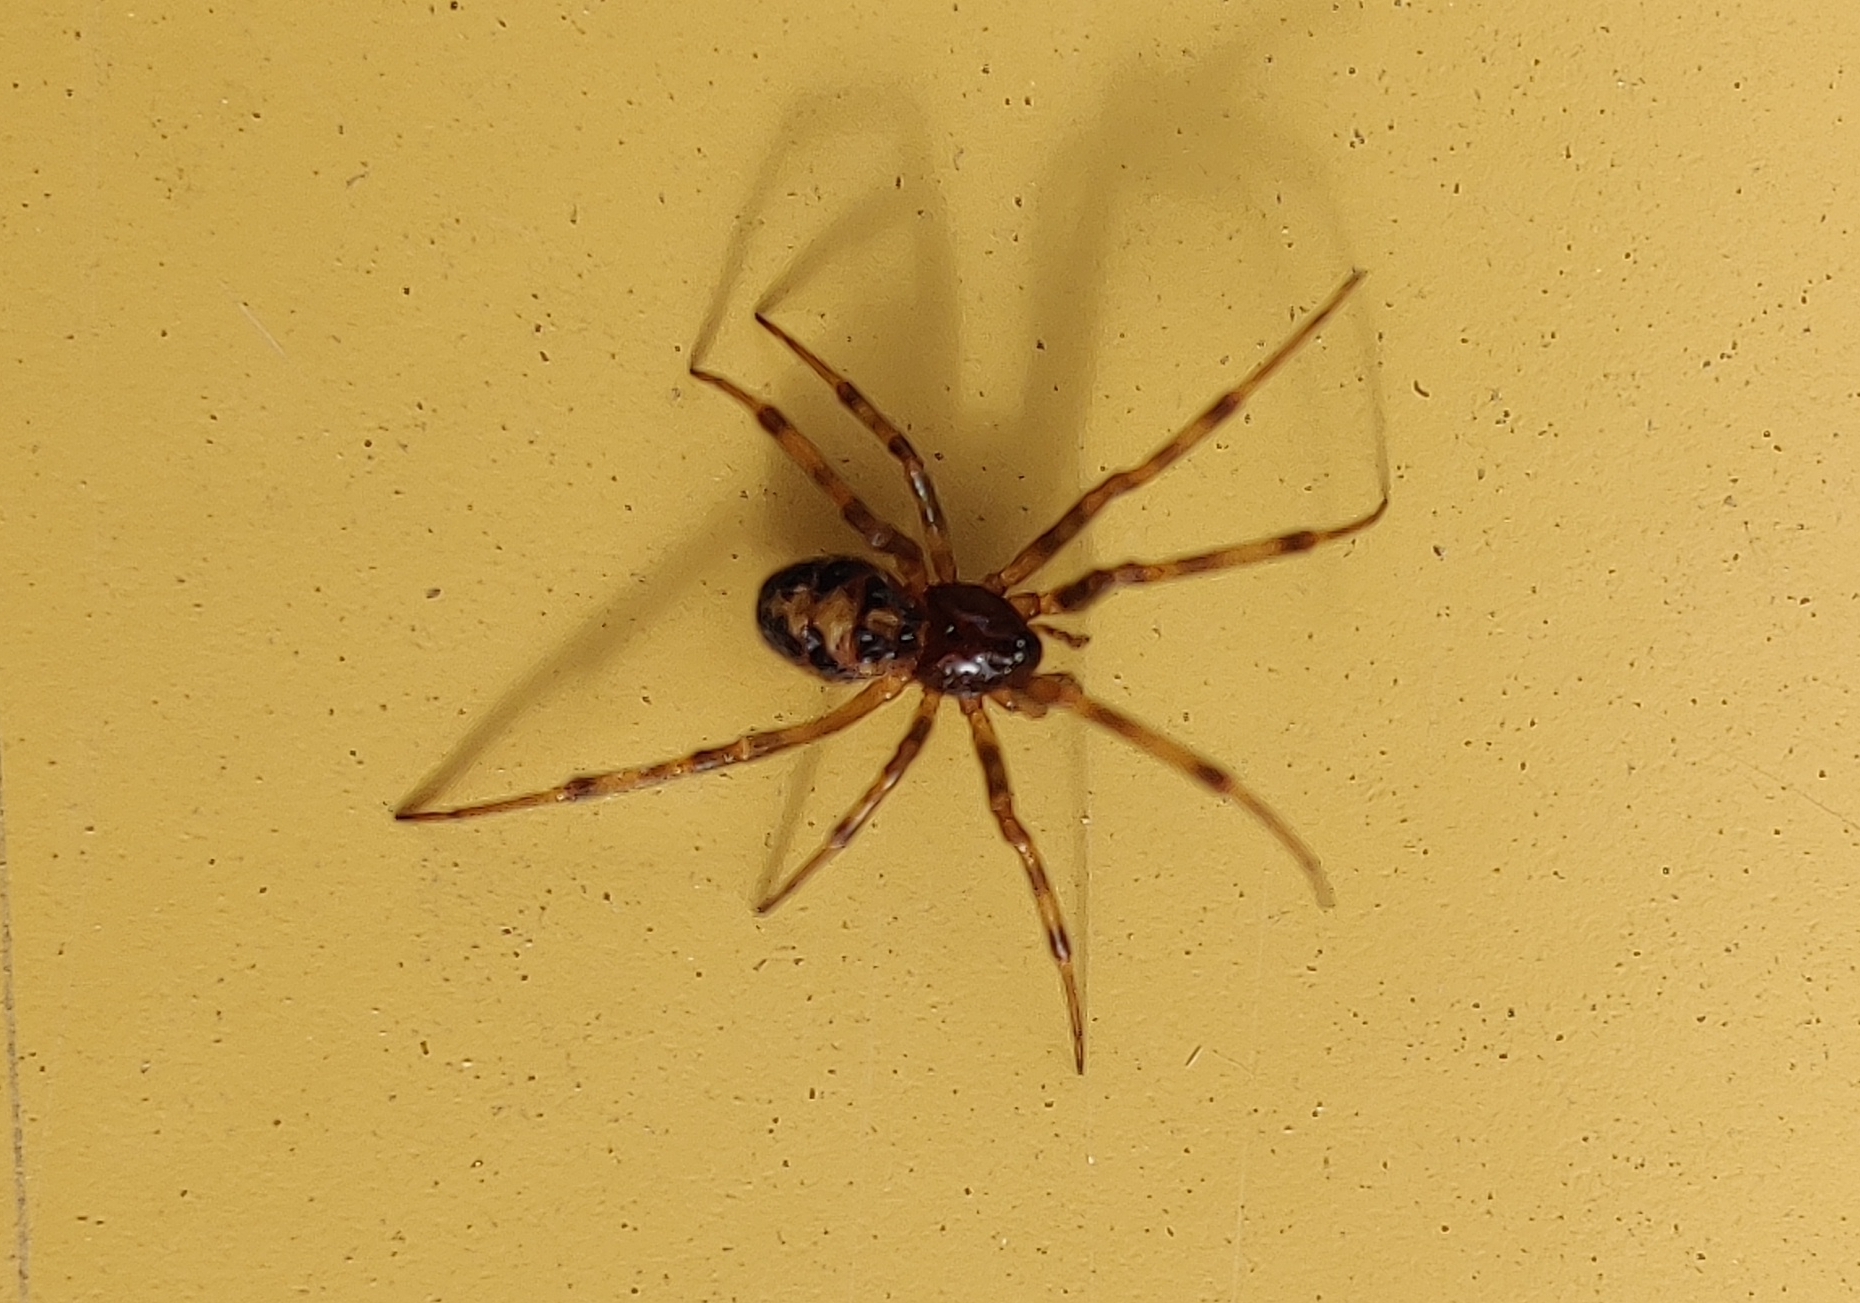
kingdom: Animalia
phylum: Arthropoda
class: Arachnida
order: Araneae
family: Theridiidae
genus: Steatoda
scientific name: Steatoda triangulosa
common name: Triangulate bud spider
